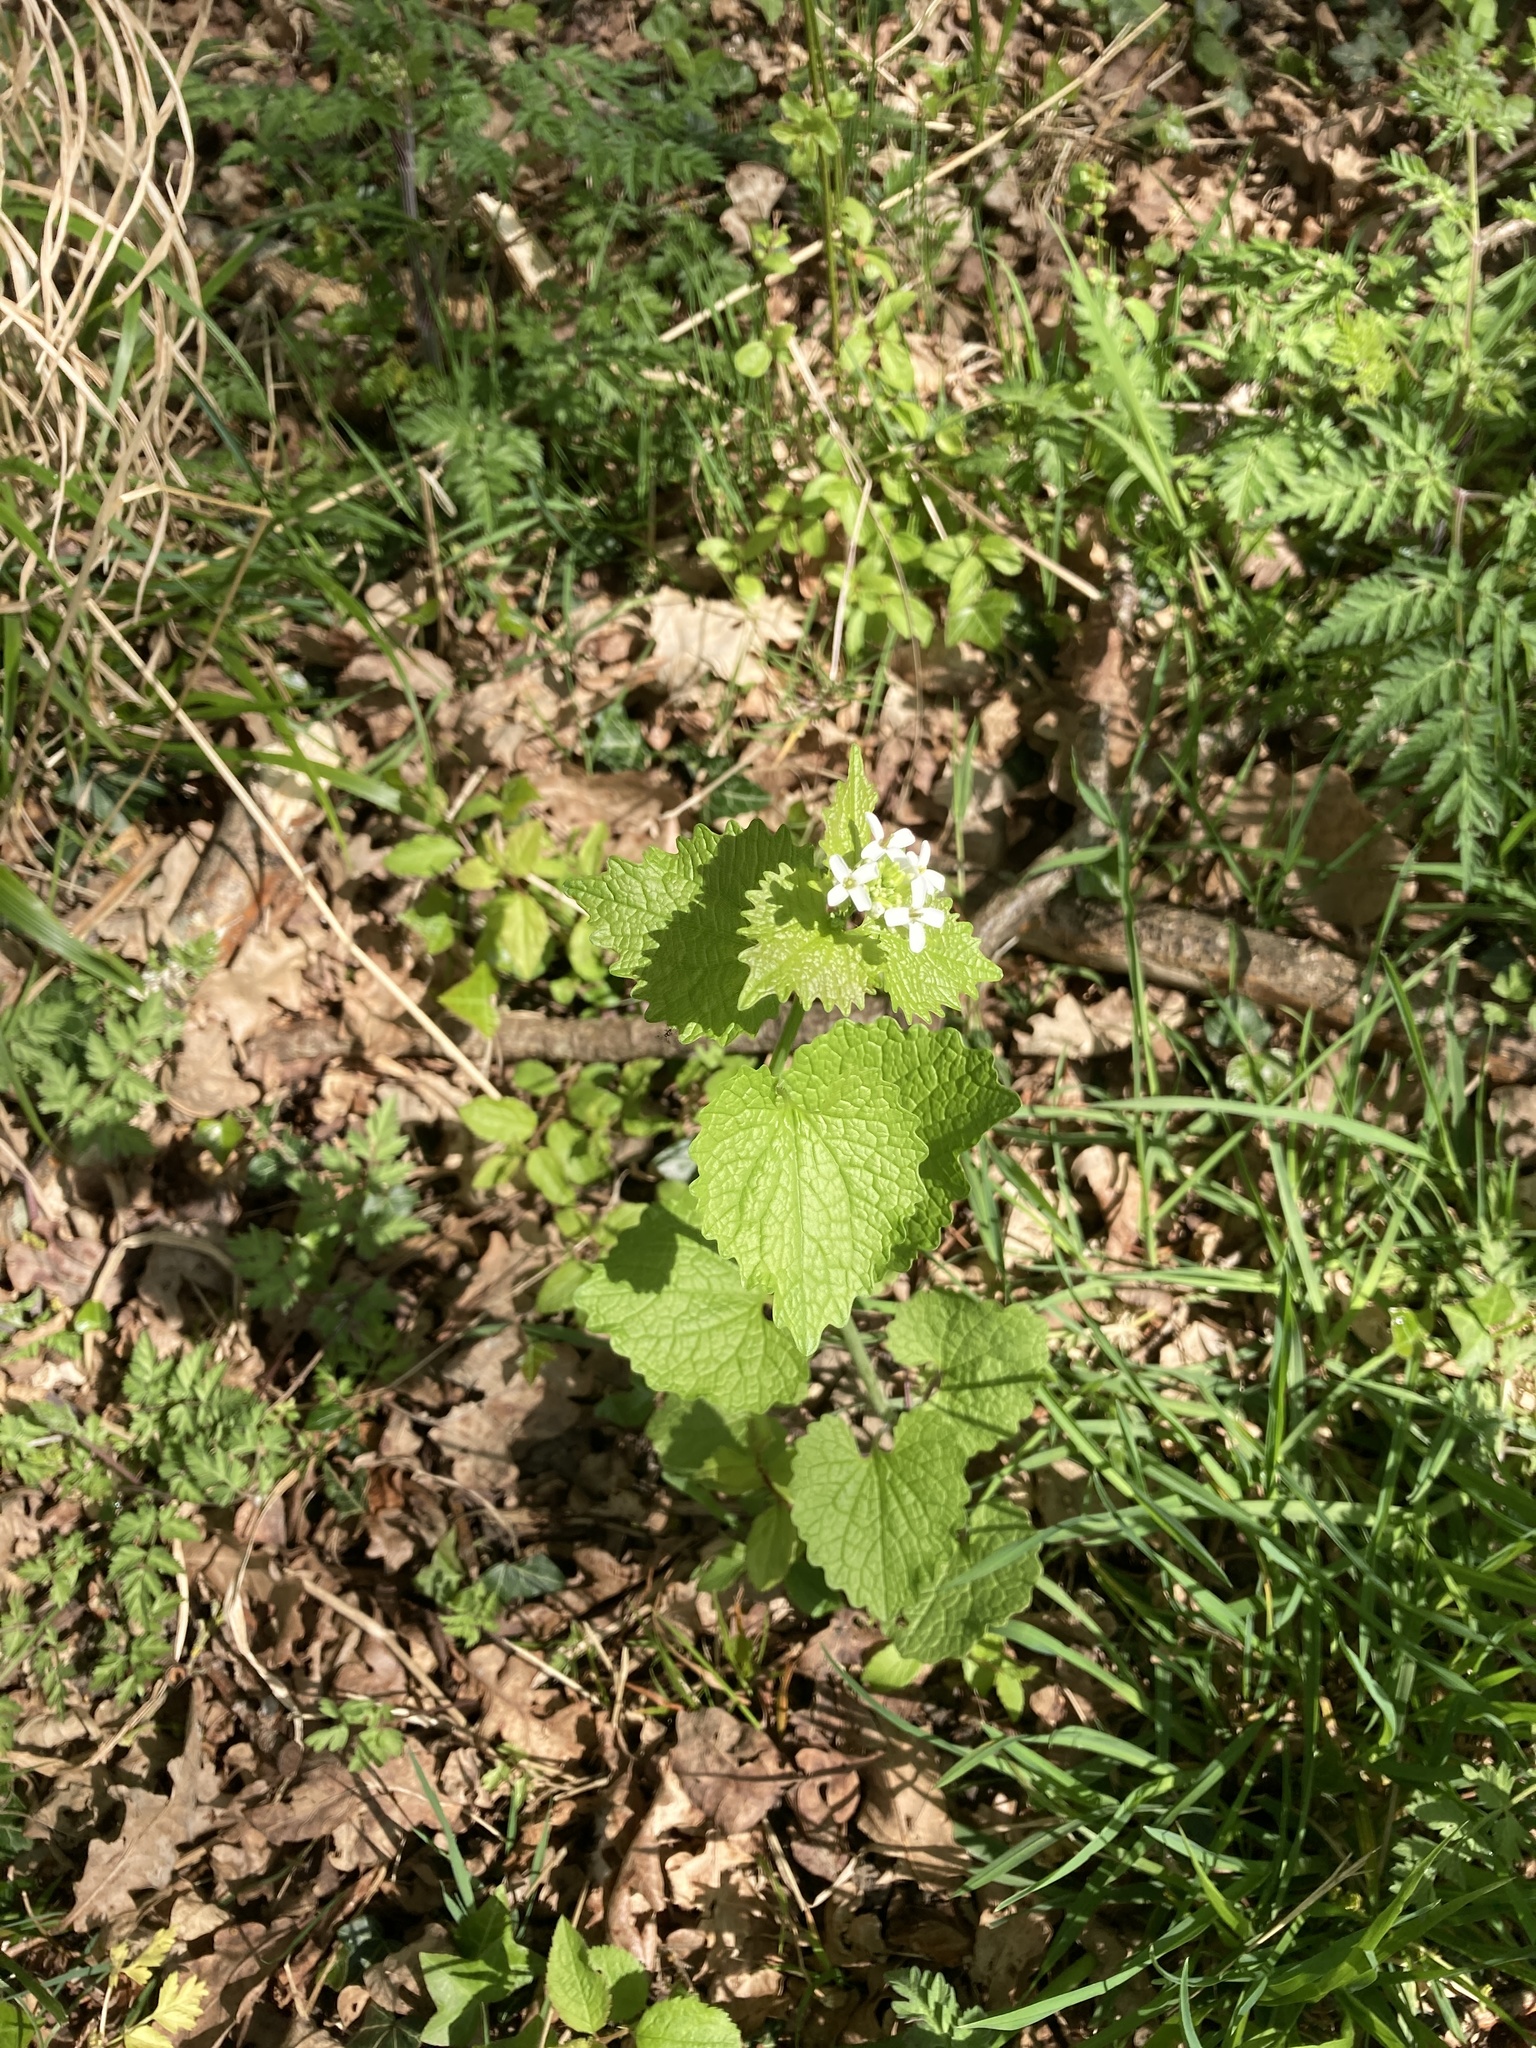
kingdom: Plantae
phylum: Tracheophyta
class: Magnoliopsida
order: Brassicales
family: Brassicaceae
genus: Alliaria
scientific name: Alliaria petiolata
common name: Garlic mustard
